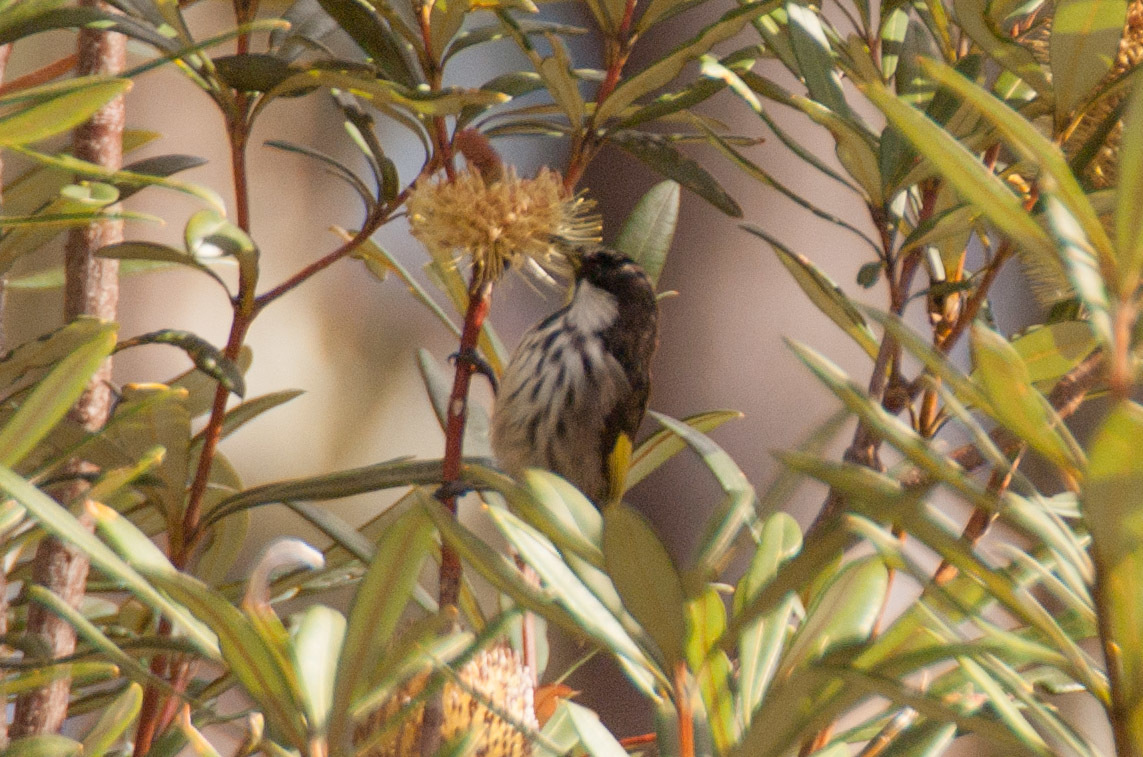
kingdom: Animalia
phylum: Chordata
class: Aves
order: Passeriformes
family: Meliphagidae
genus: Phylidonyris
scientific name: Phylidonyris niger
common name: White-cheeked honeyeater
